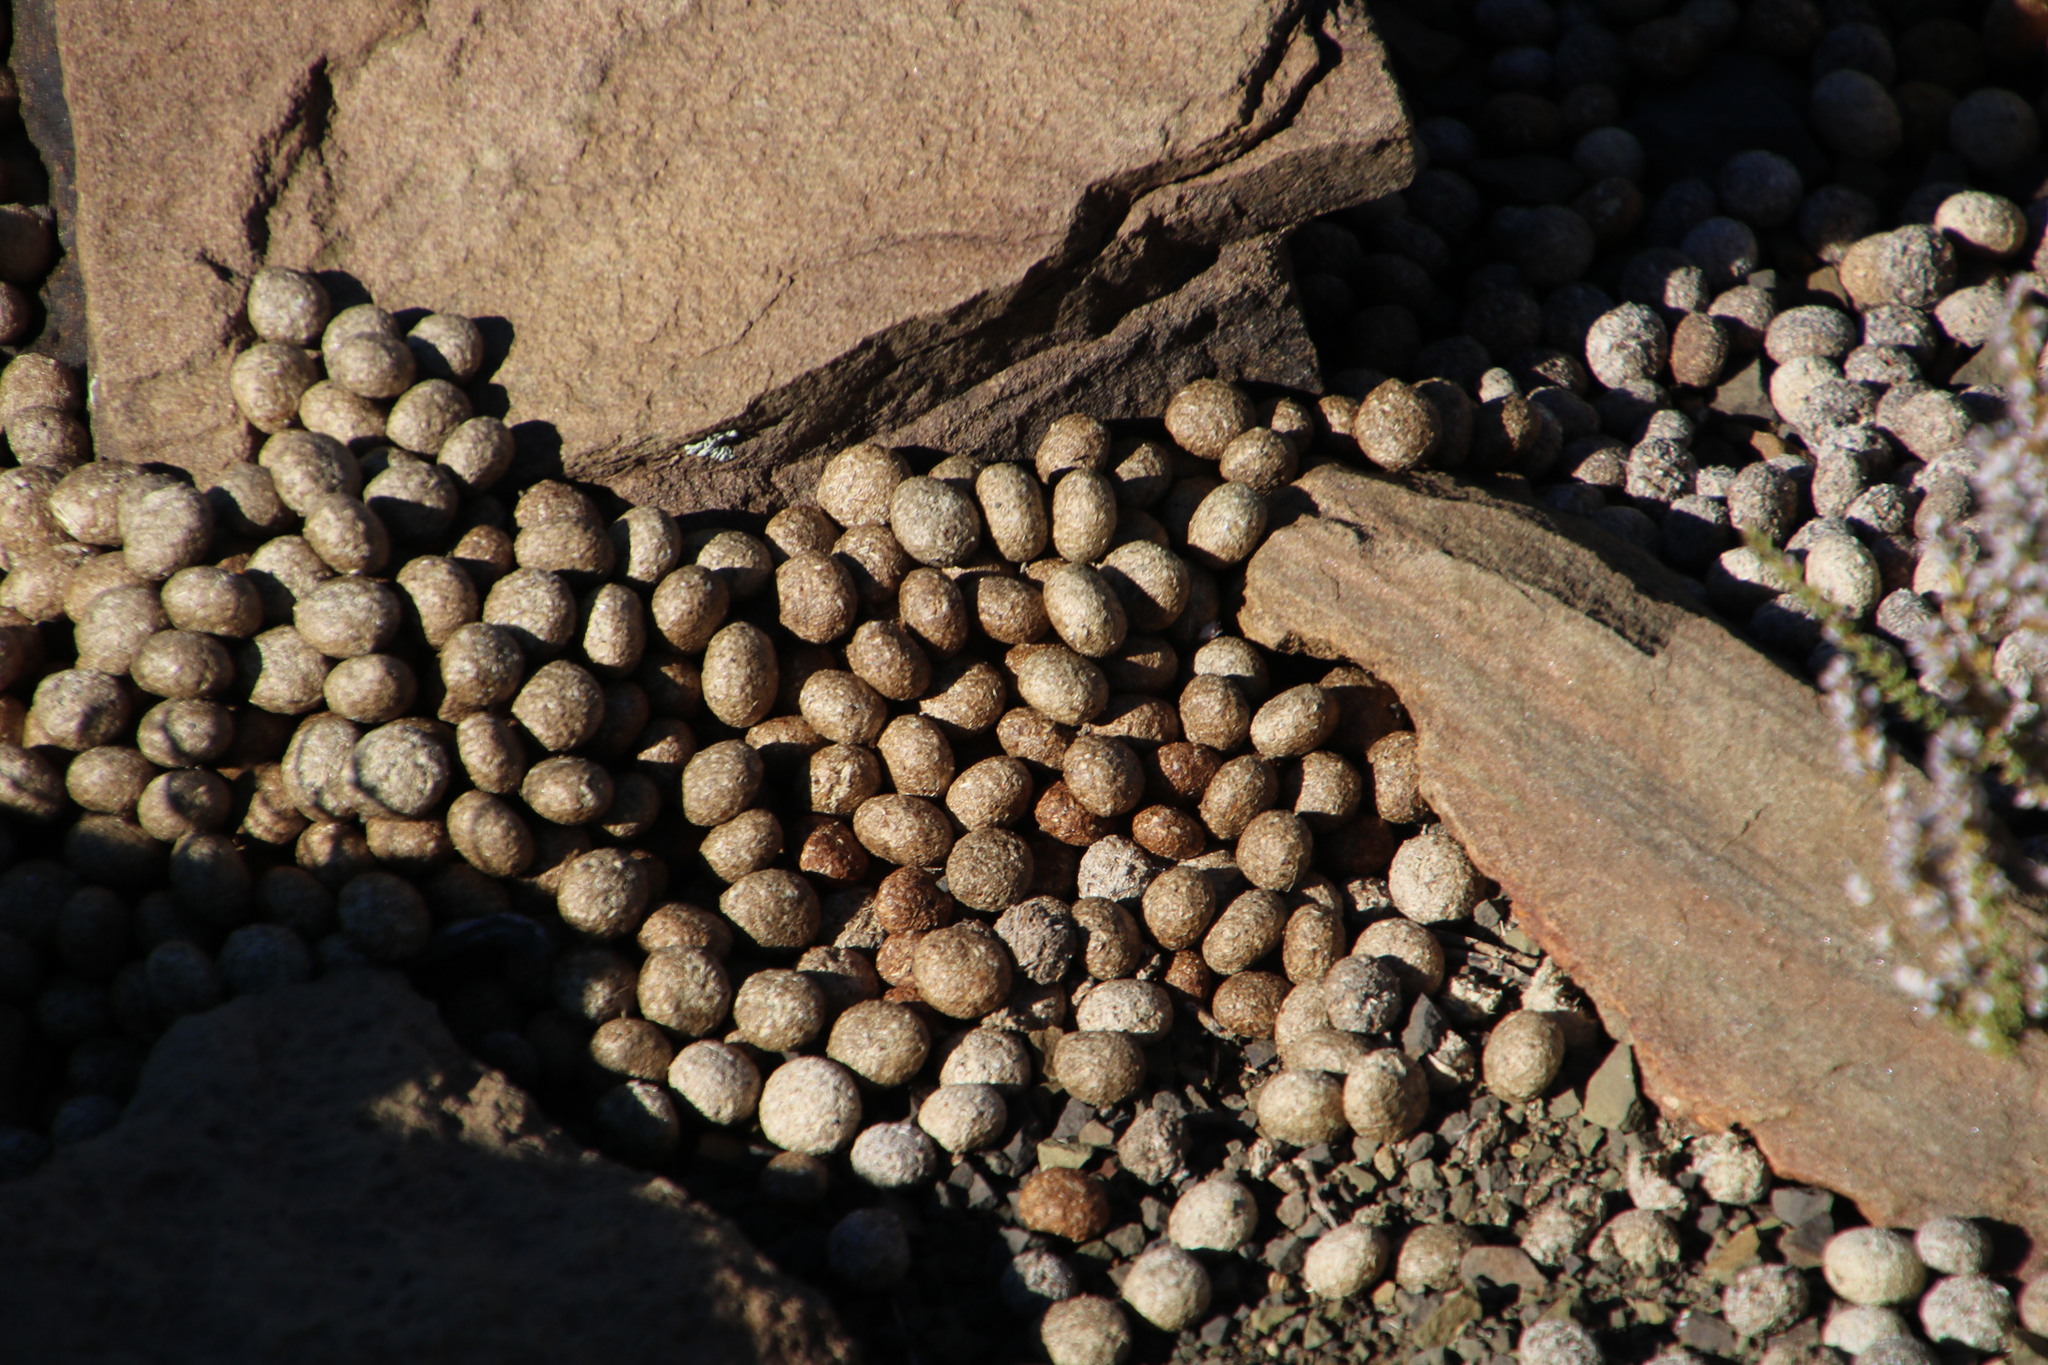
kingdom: Animalia
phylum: Chordata
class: Mammalia
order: Lagomorpha
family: Leporidae
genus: Pronolagus
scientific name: Pronolagus saundersiae
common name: Hewitt's red rock hare
